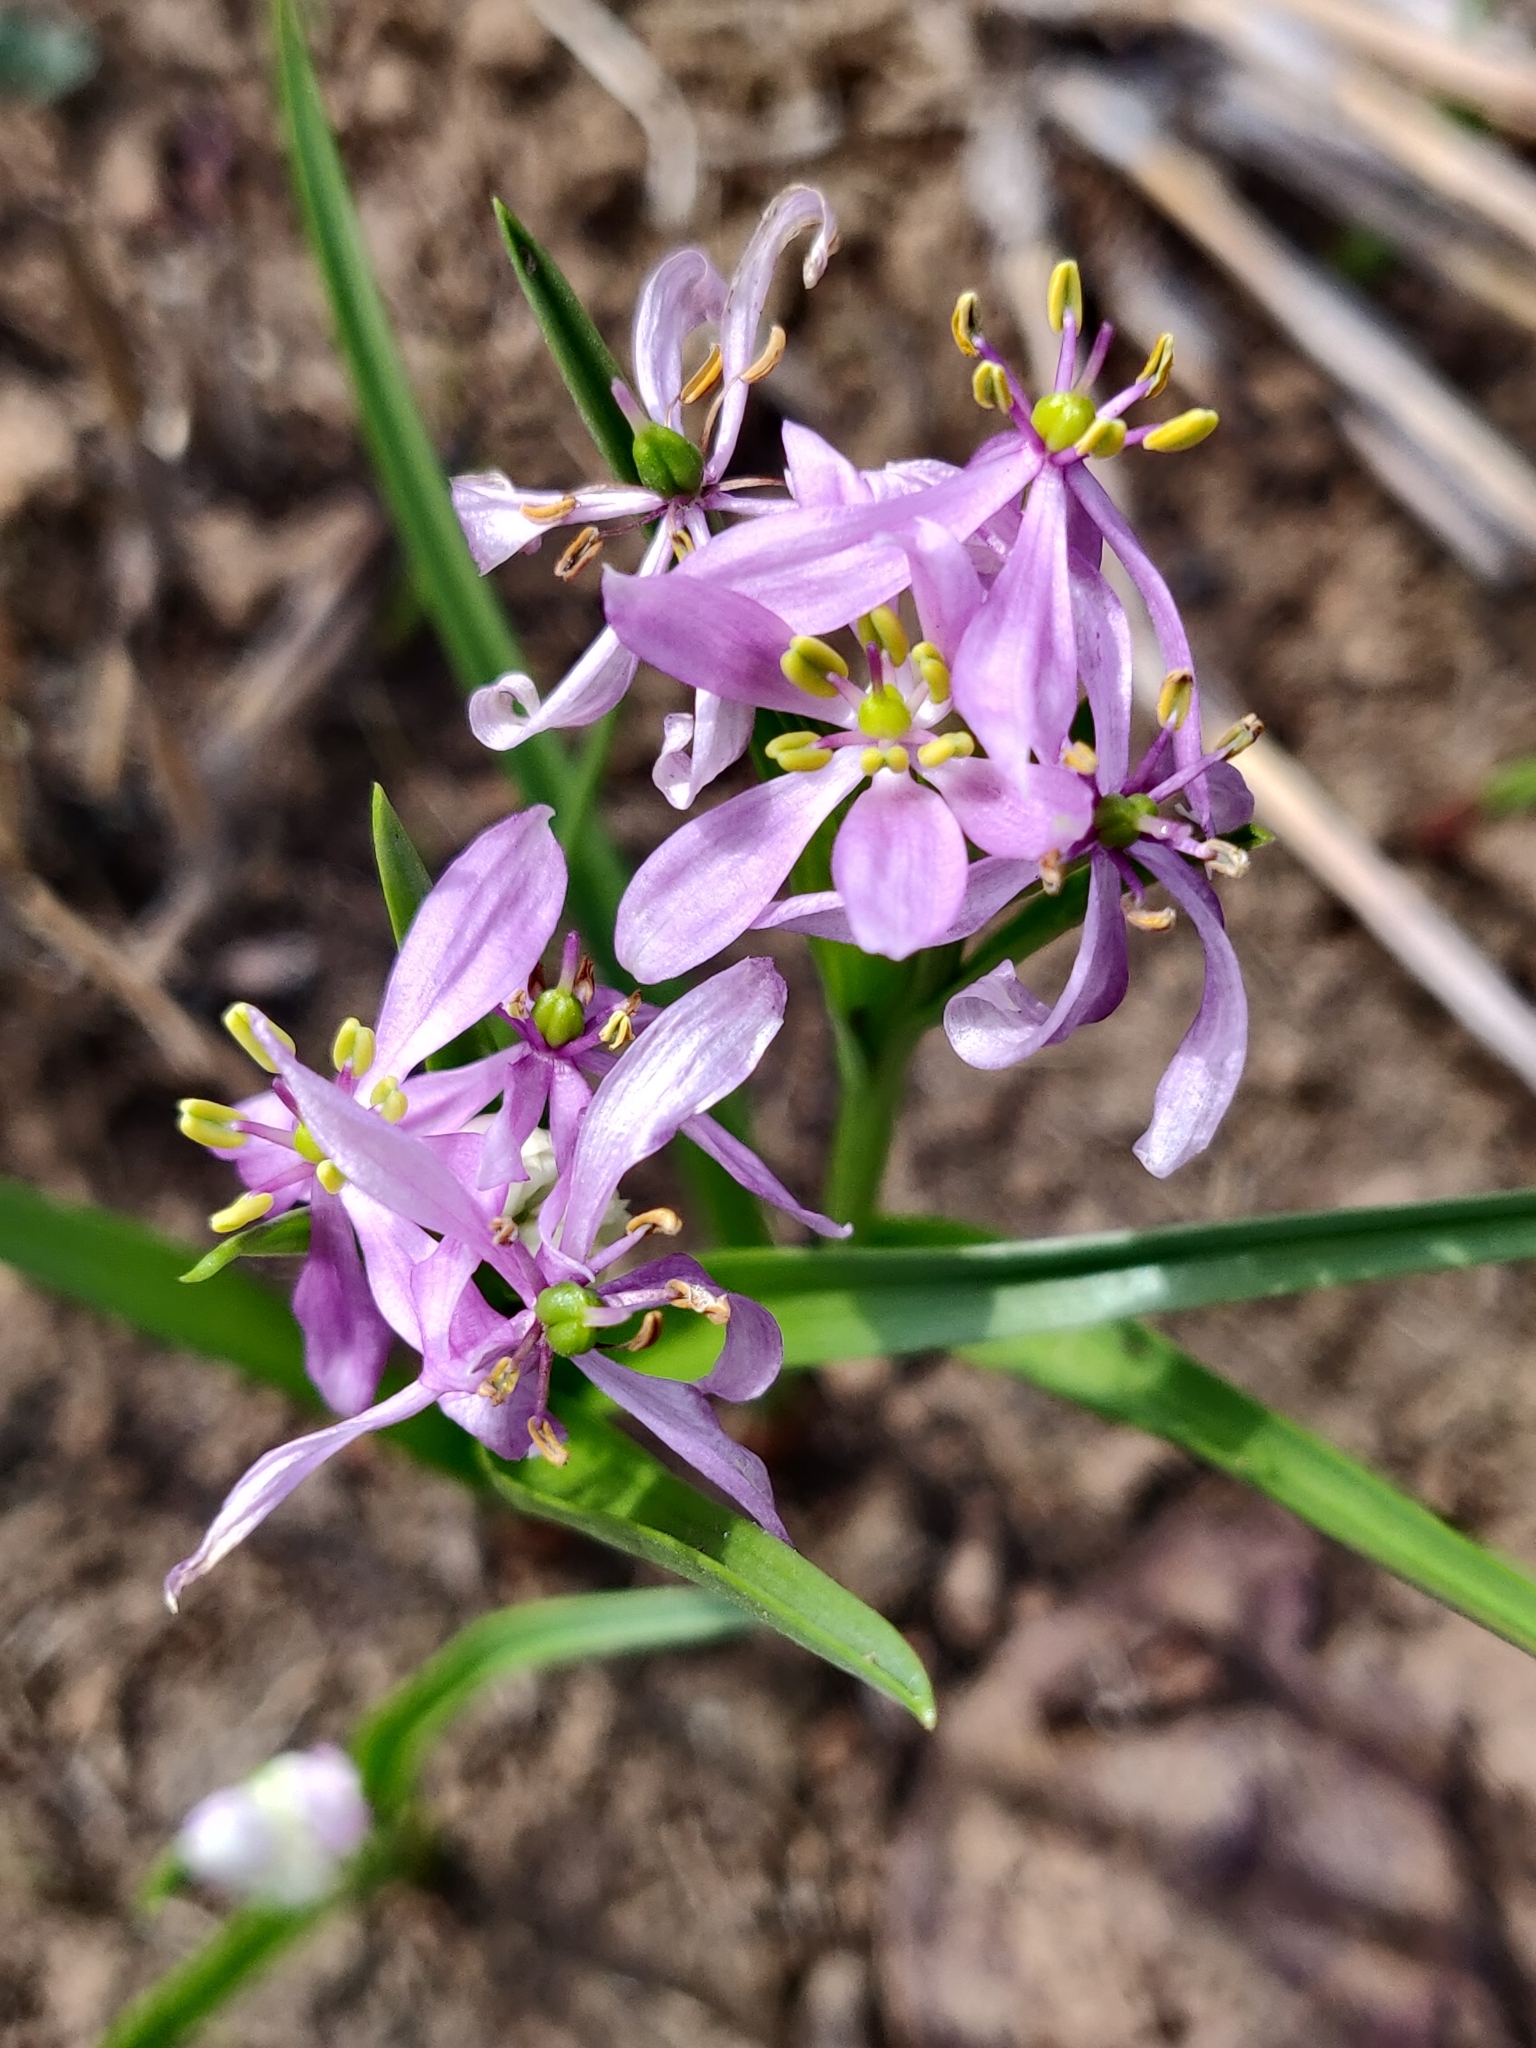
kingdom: Plantae
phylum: Tracheophyta
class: Liliopsida
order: Liliales
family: Colchicaceae
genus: Iphigenia
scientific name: Iphigenia ratnagirica
